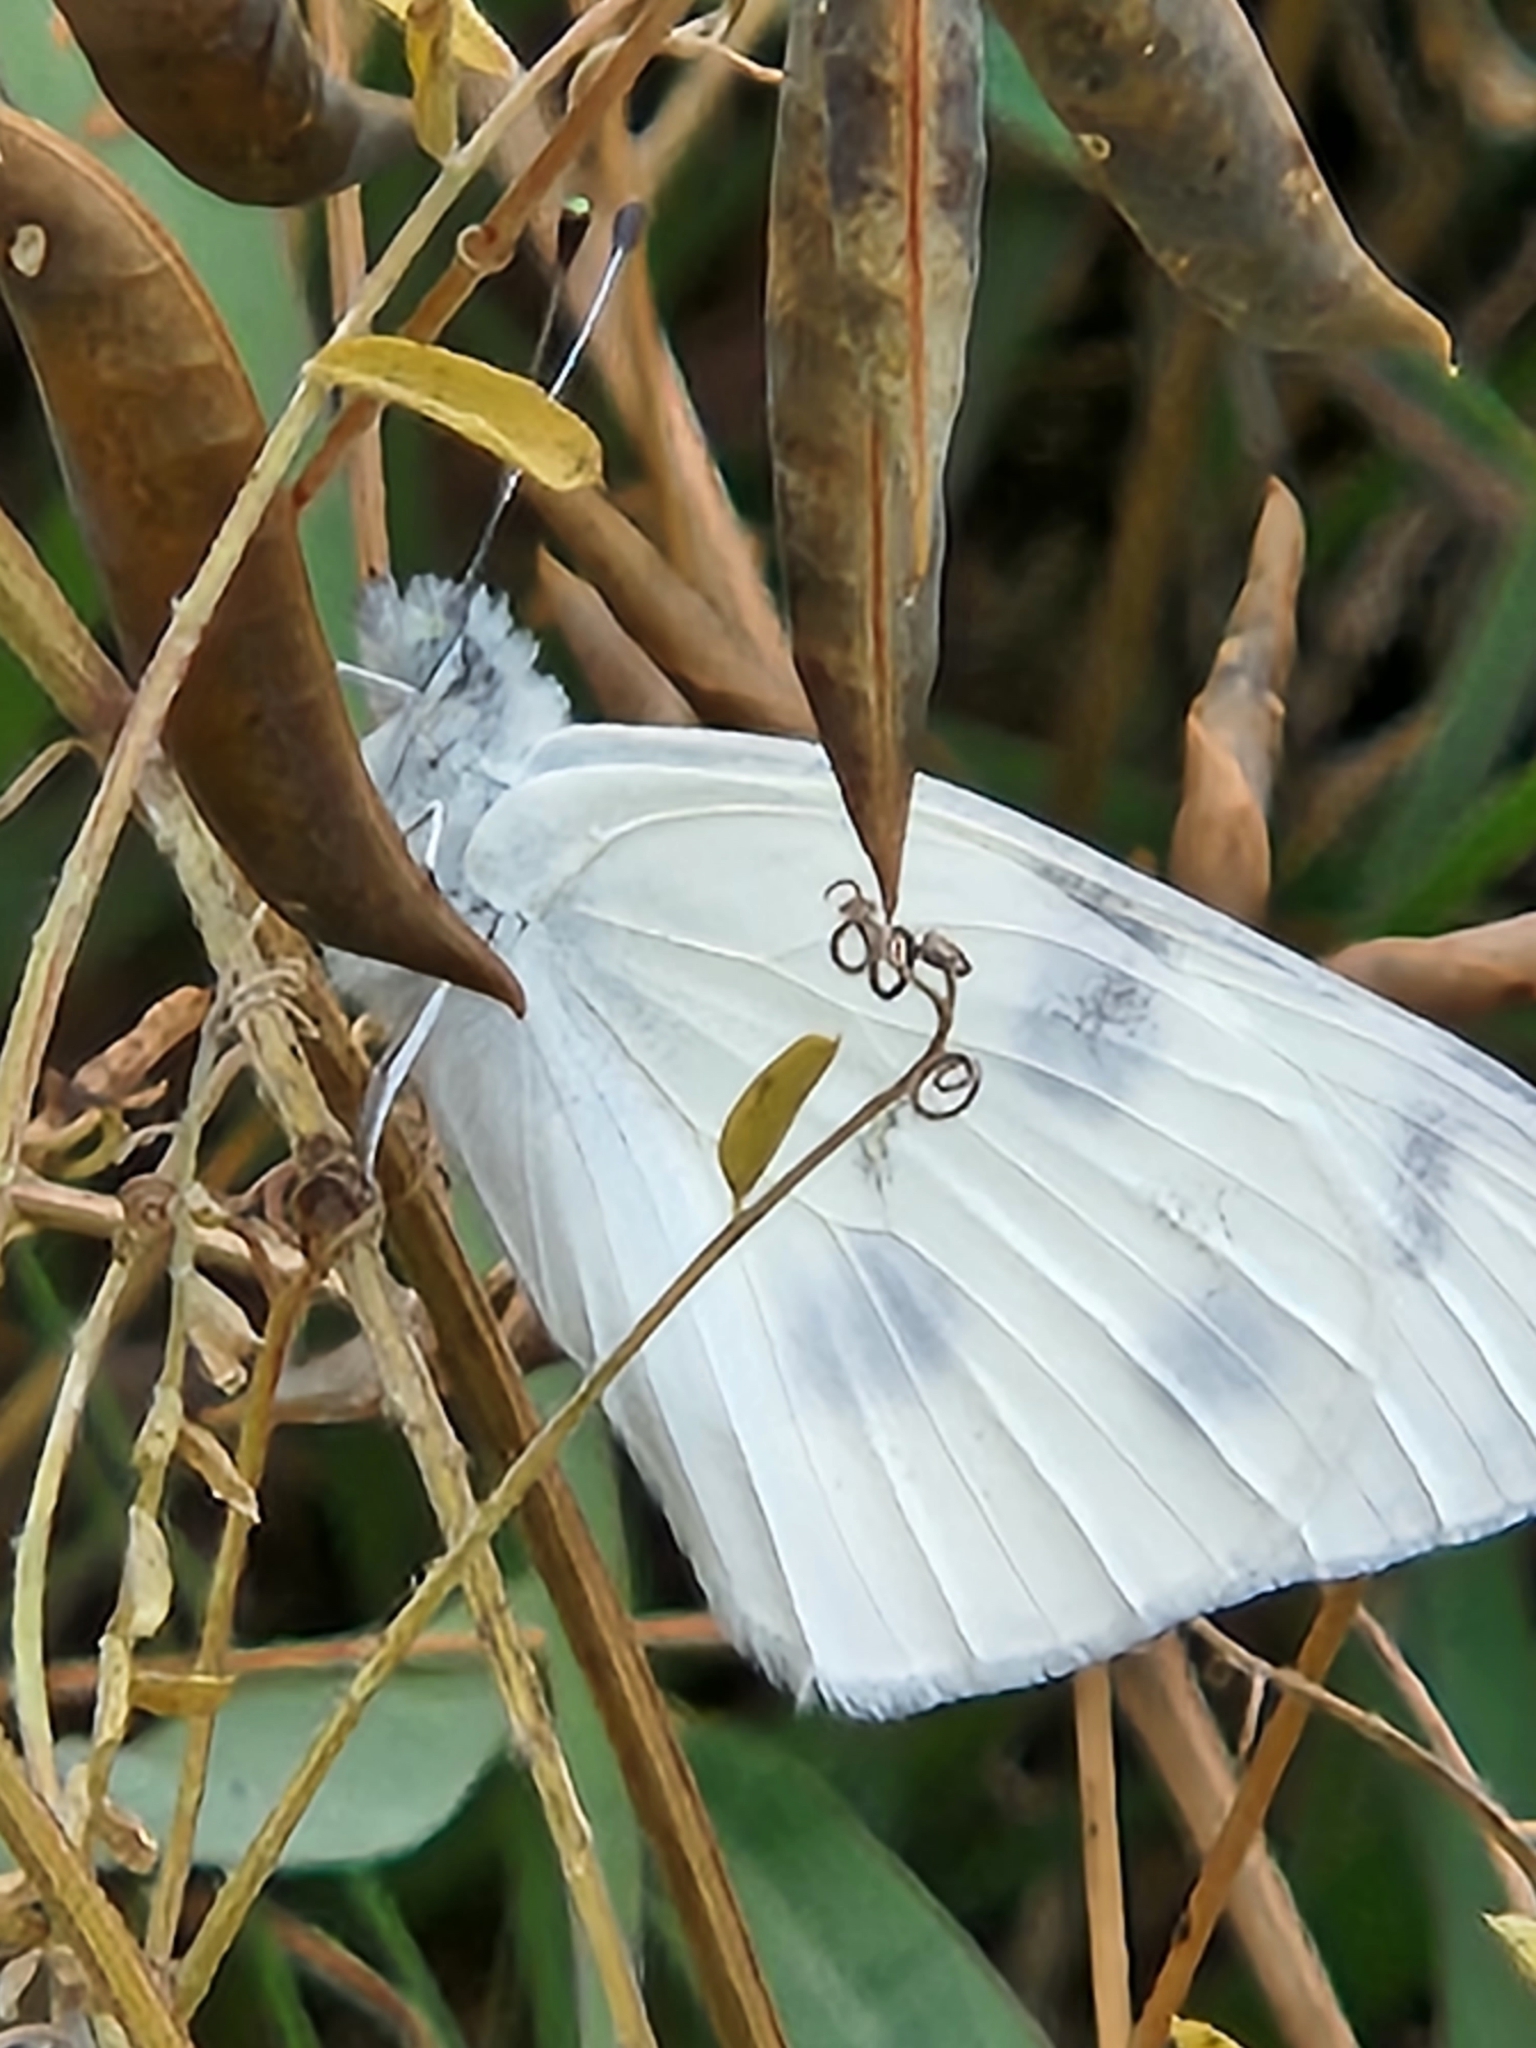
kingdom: Animalia
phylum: Arthropoda
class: Insecta
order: Lepidoptera
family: Pieridae
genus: Pontia
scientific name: Pontia protodice
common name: Checkered white
